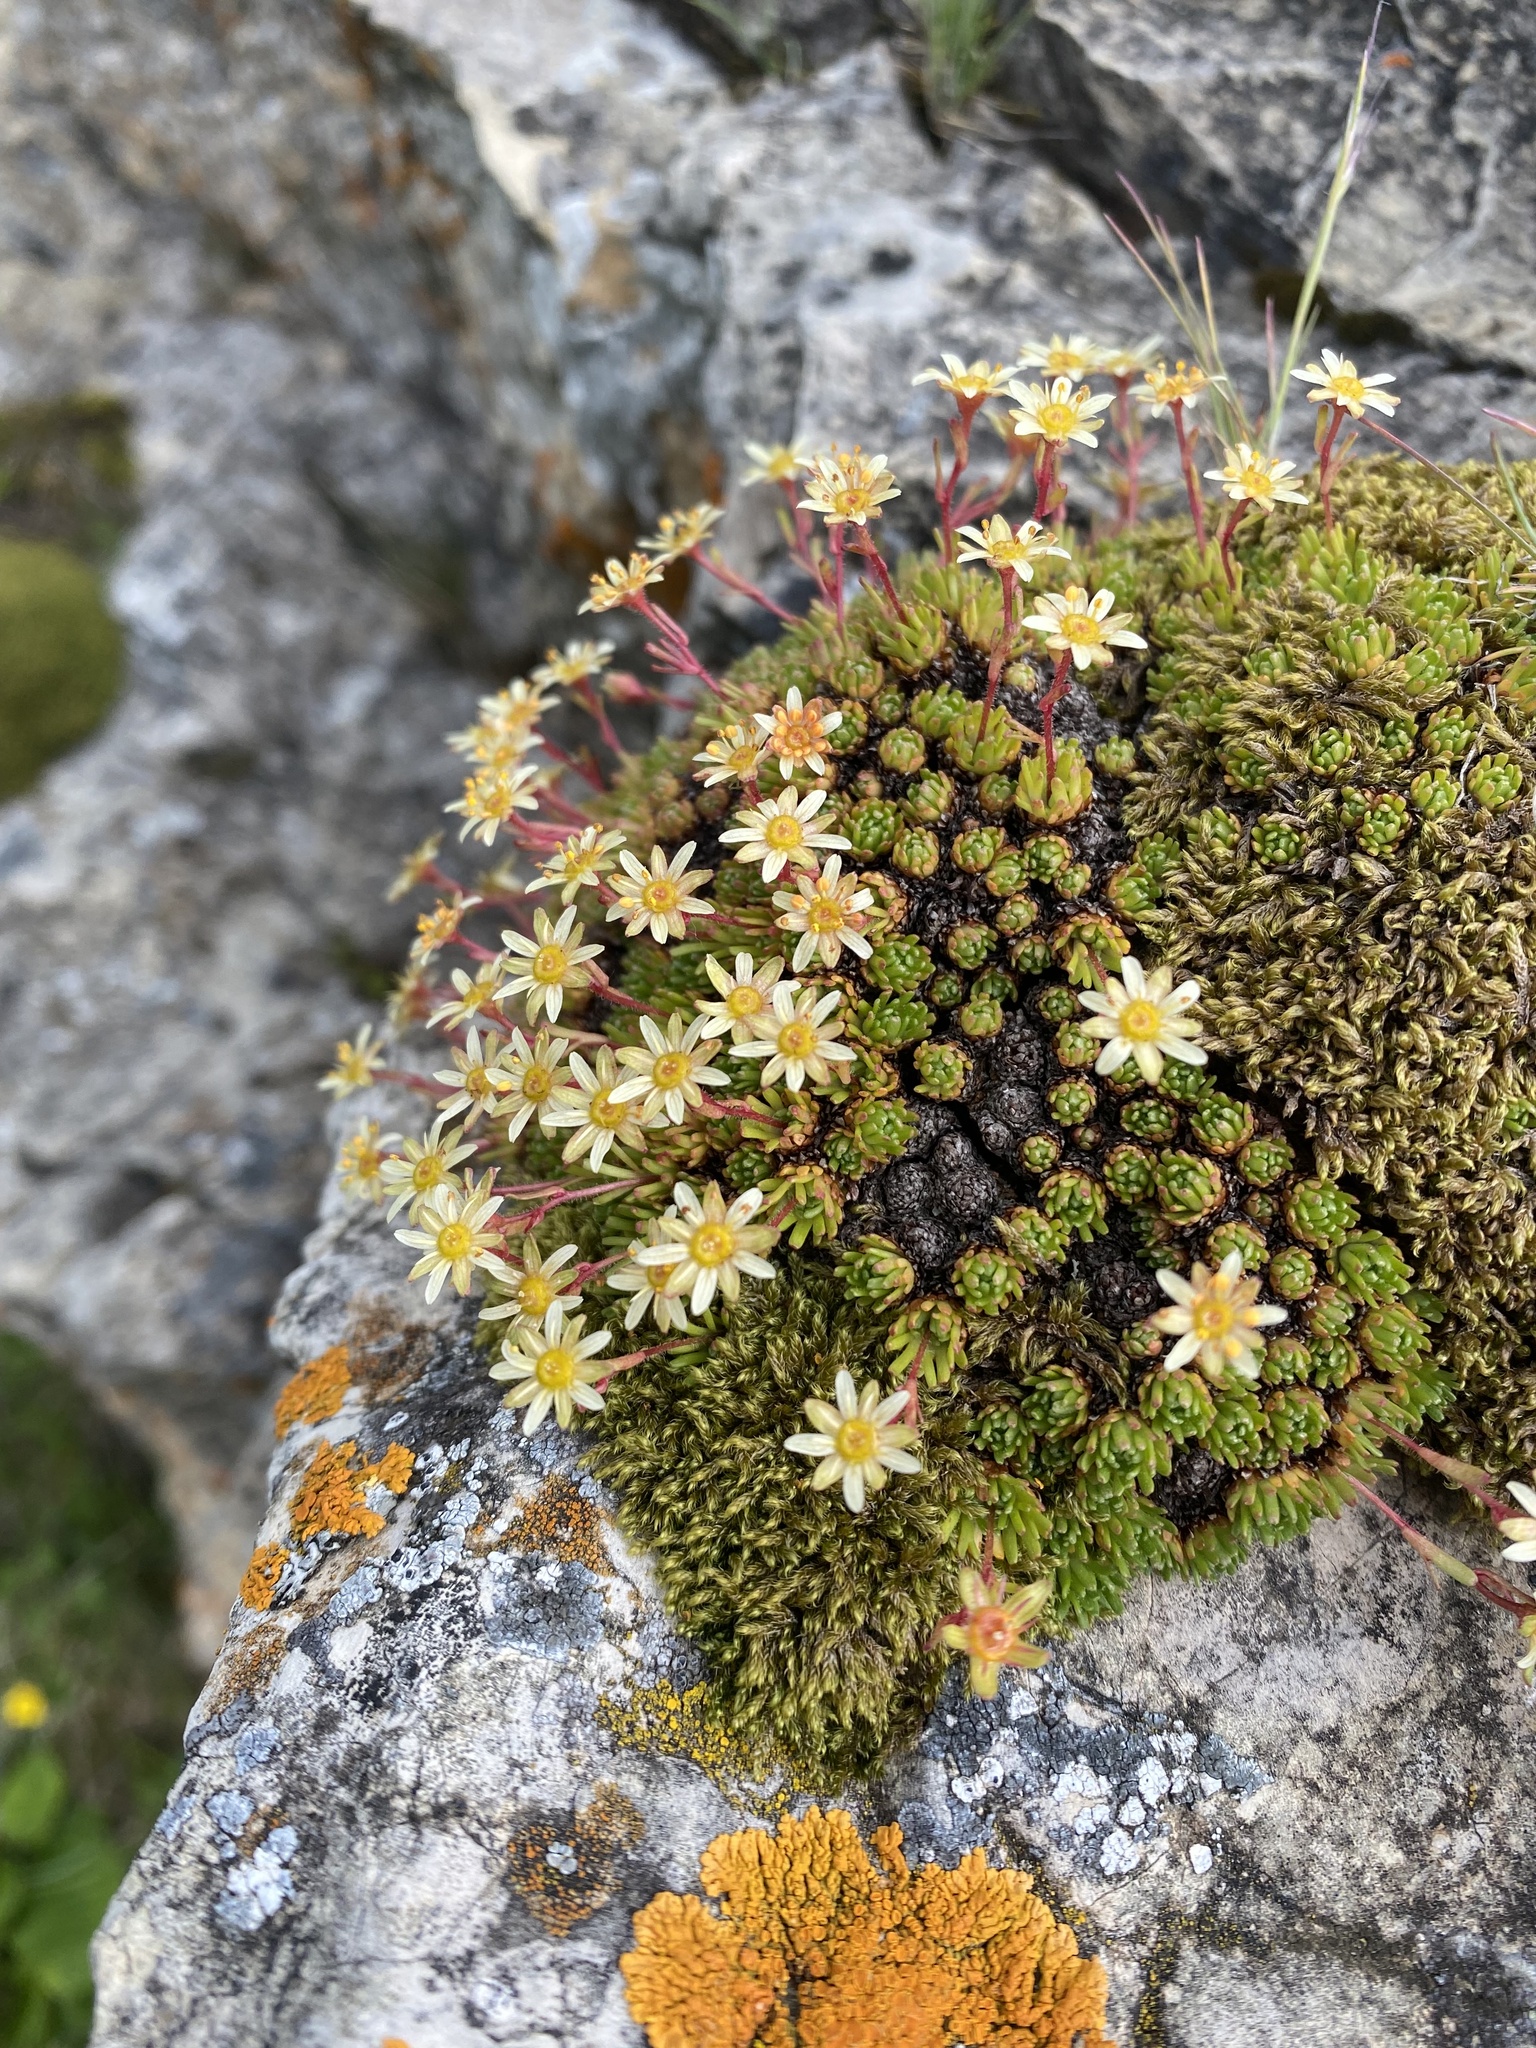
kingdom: Plantae
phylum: Tracheophyta
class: Magnoliopsida
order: Saxifragales
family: Saxifragaceae
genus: Saxifraga
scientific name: Saxifraga moschata
